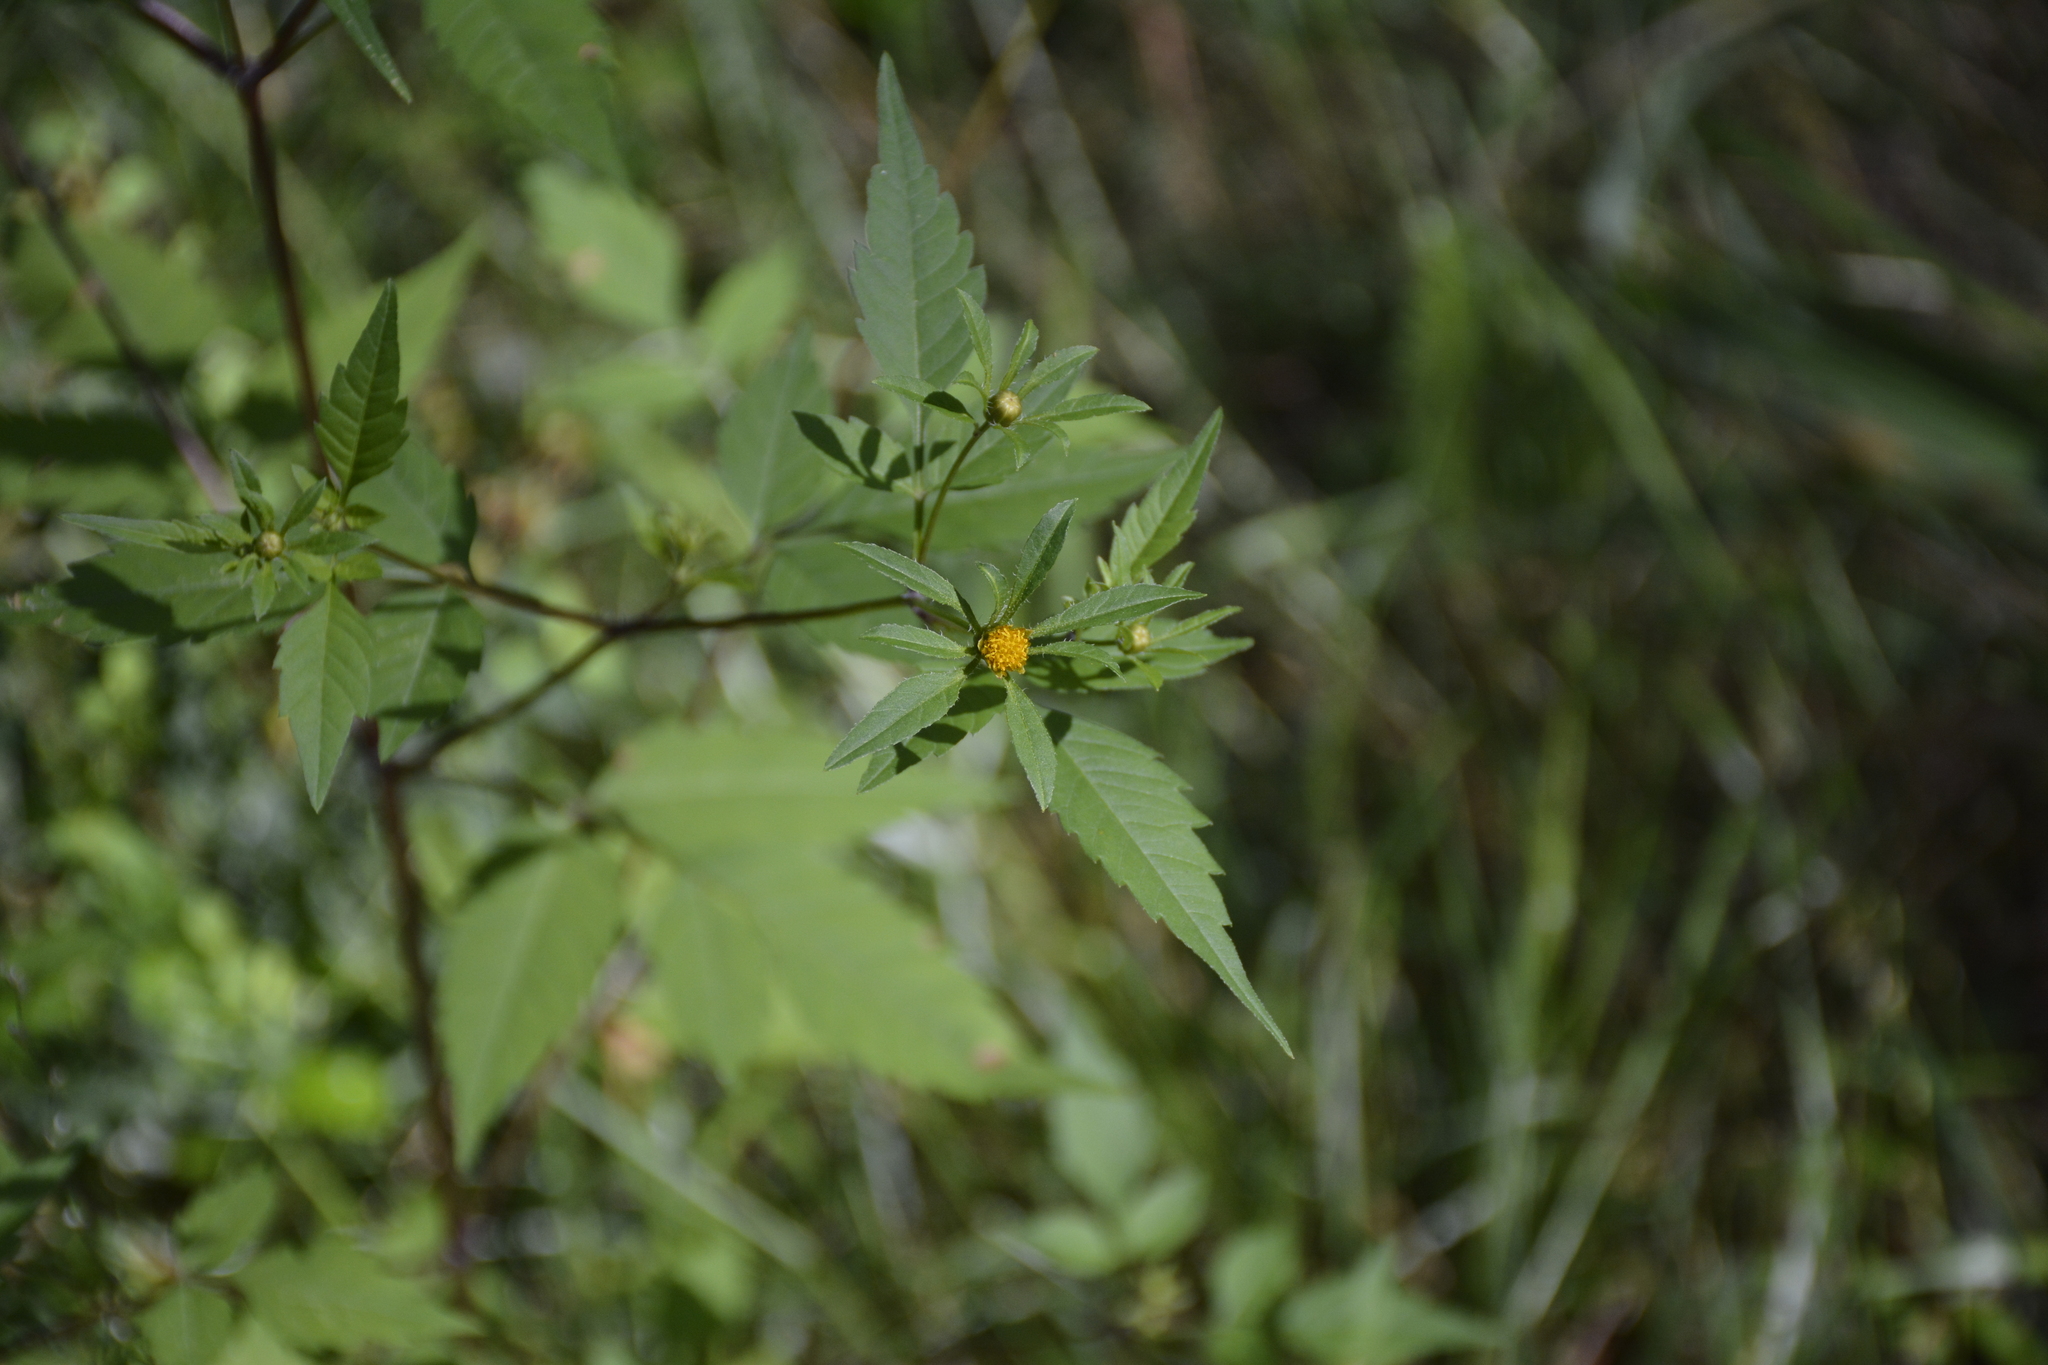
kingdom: Plantae
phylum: Tracheophyta
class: Magnoliopsida
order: Asterales
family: Asteraceae
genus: Bidens
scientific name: Bidens frondosa
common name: Beggarticks
